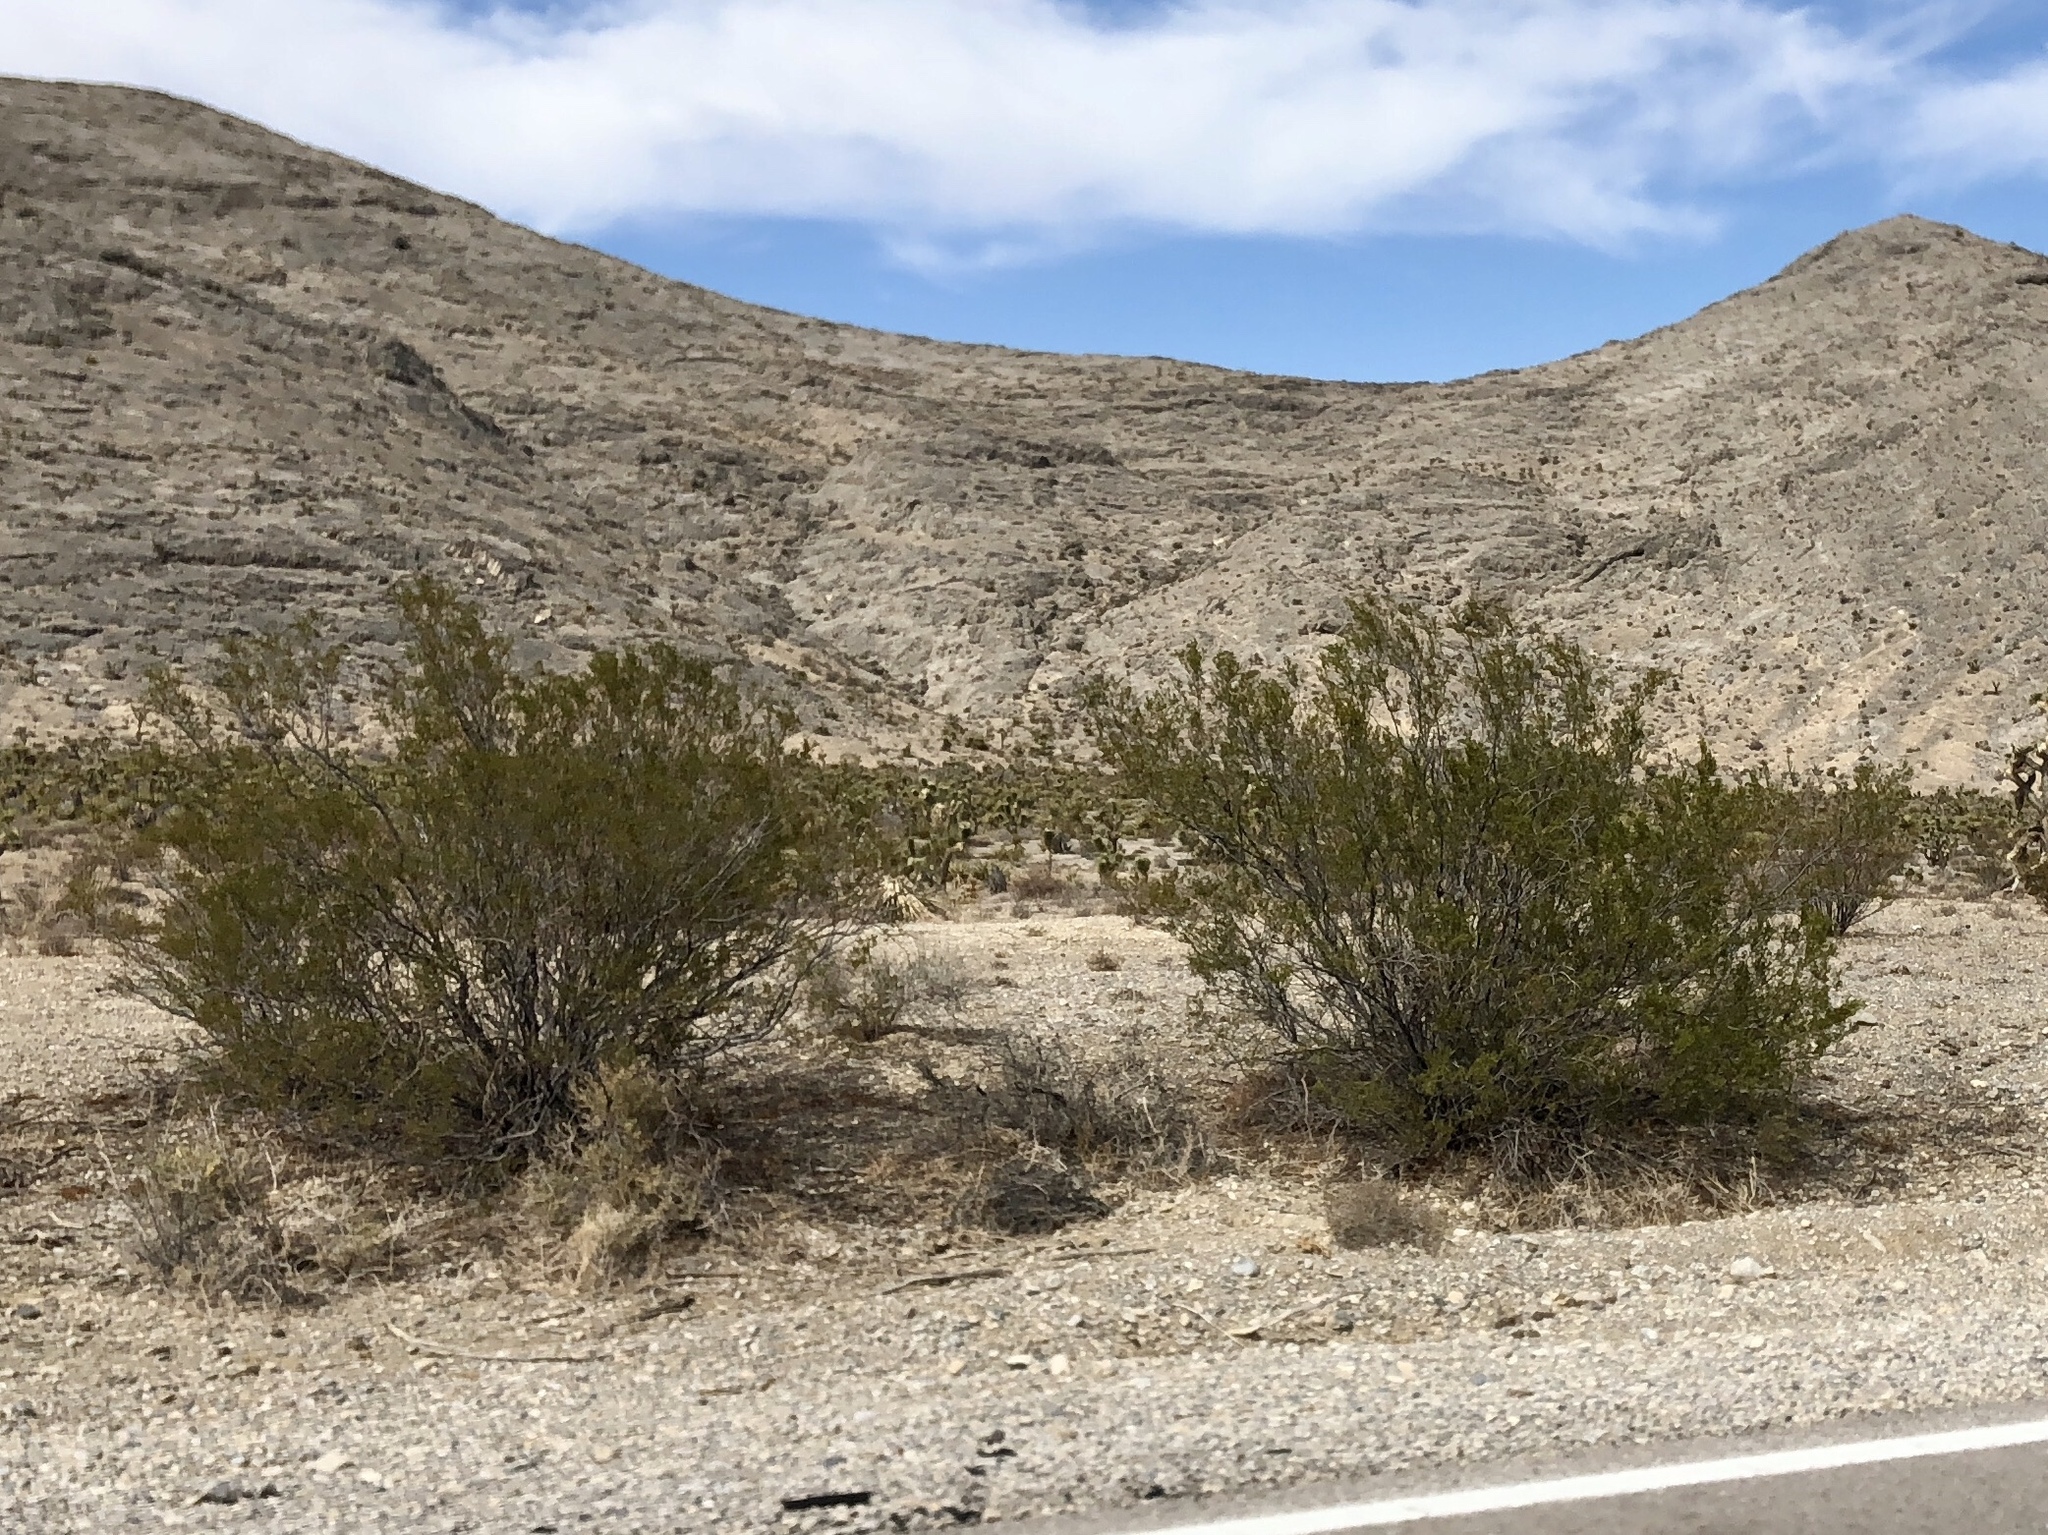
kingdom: Plantae
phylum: Tracheophyta
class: Magnoliopsida
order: Zygophyllales
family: Zygophyllaceae
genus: Larrea
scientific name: Larrea tridentata
